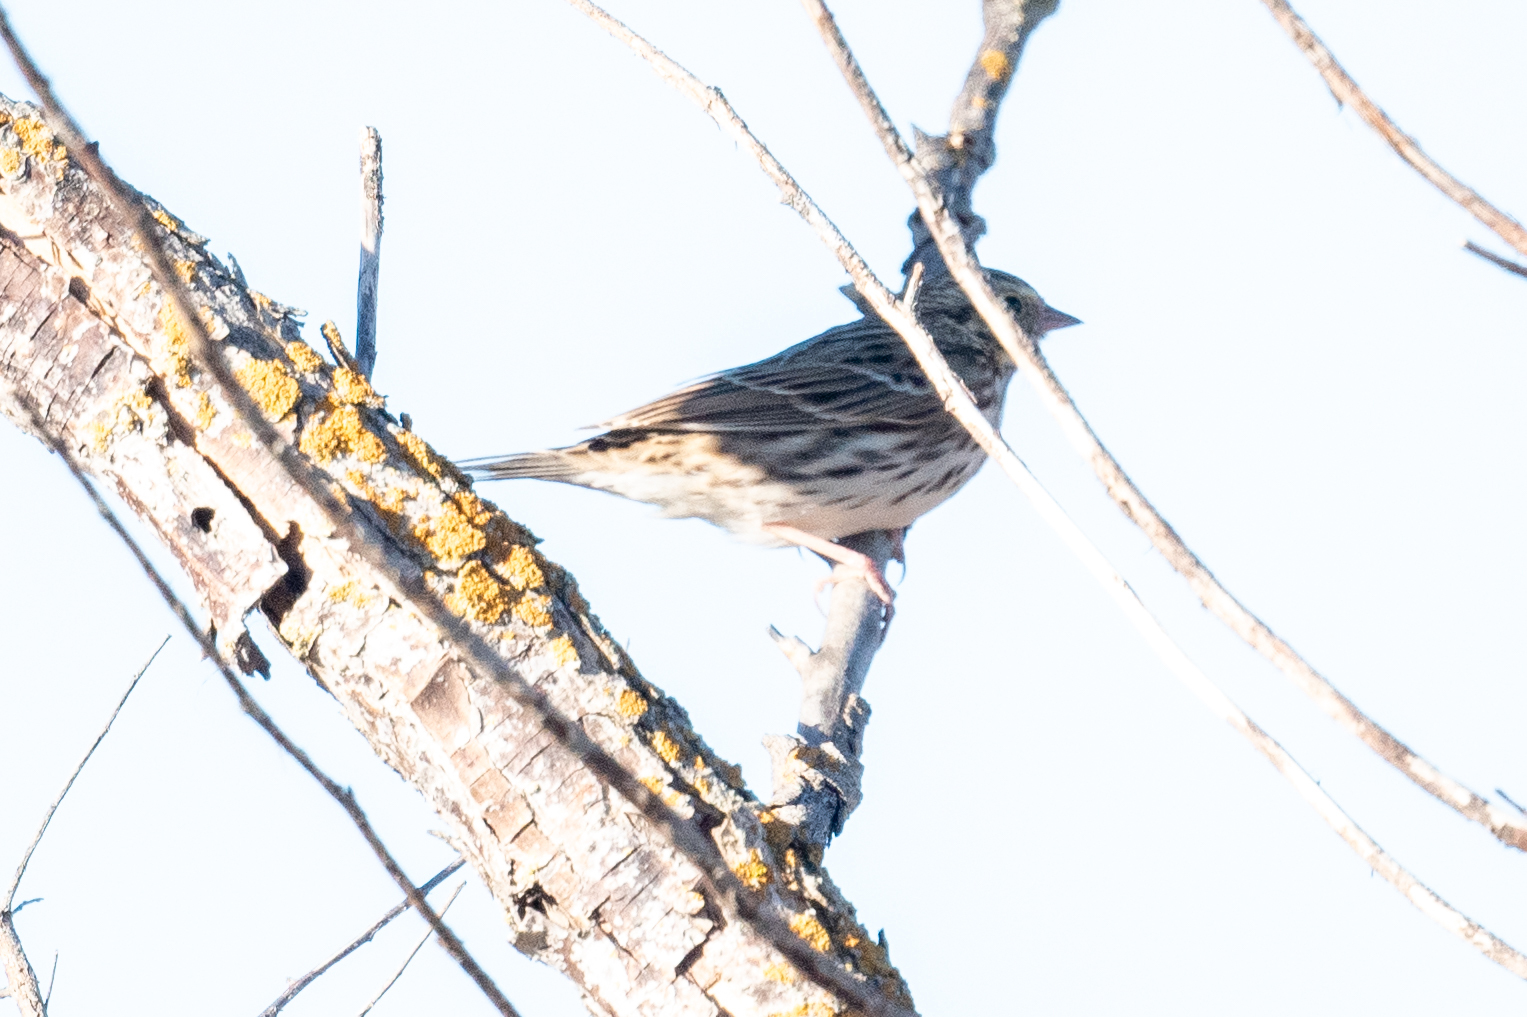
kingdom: Animalia
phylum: Chordata
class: Aves
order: Passeriformes
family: Passerellidae
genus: Passerculus
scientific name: Passerculus sandwichensis
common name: Savannah sparrow
